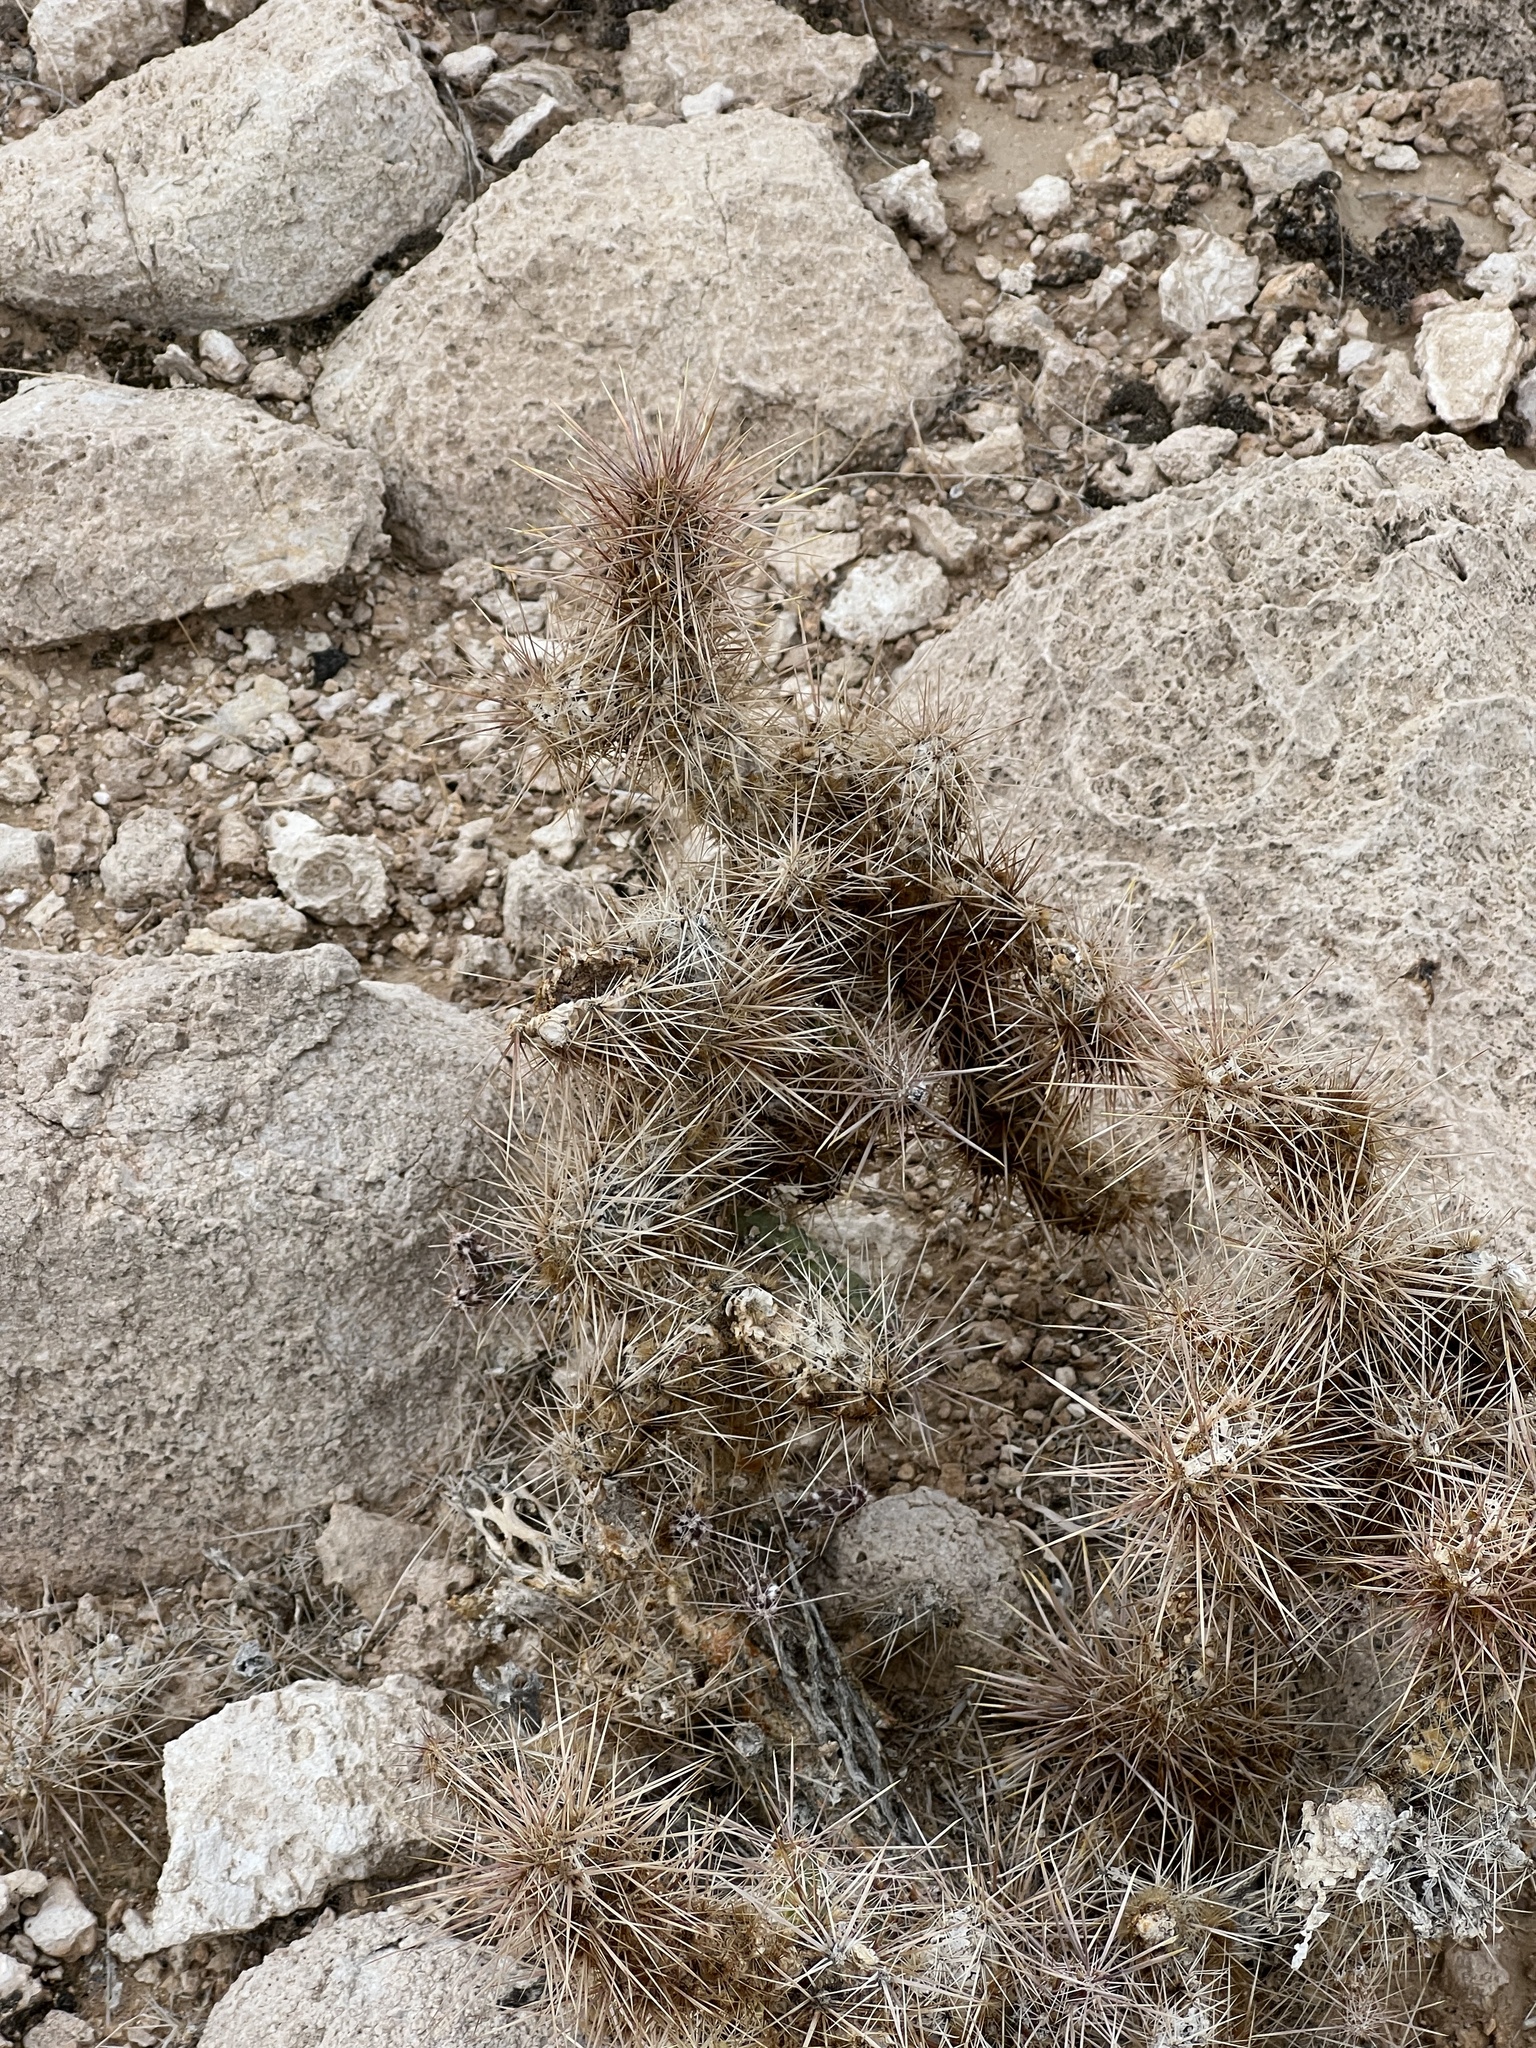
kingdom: Plantae
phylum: Tracheophyta
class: Magnoliopsida
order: Caryophyllales
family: Cactaceae
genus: Cylindropuntia
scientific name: Cylindropuntia echinocarpa
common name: Ground cholla
